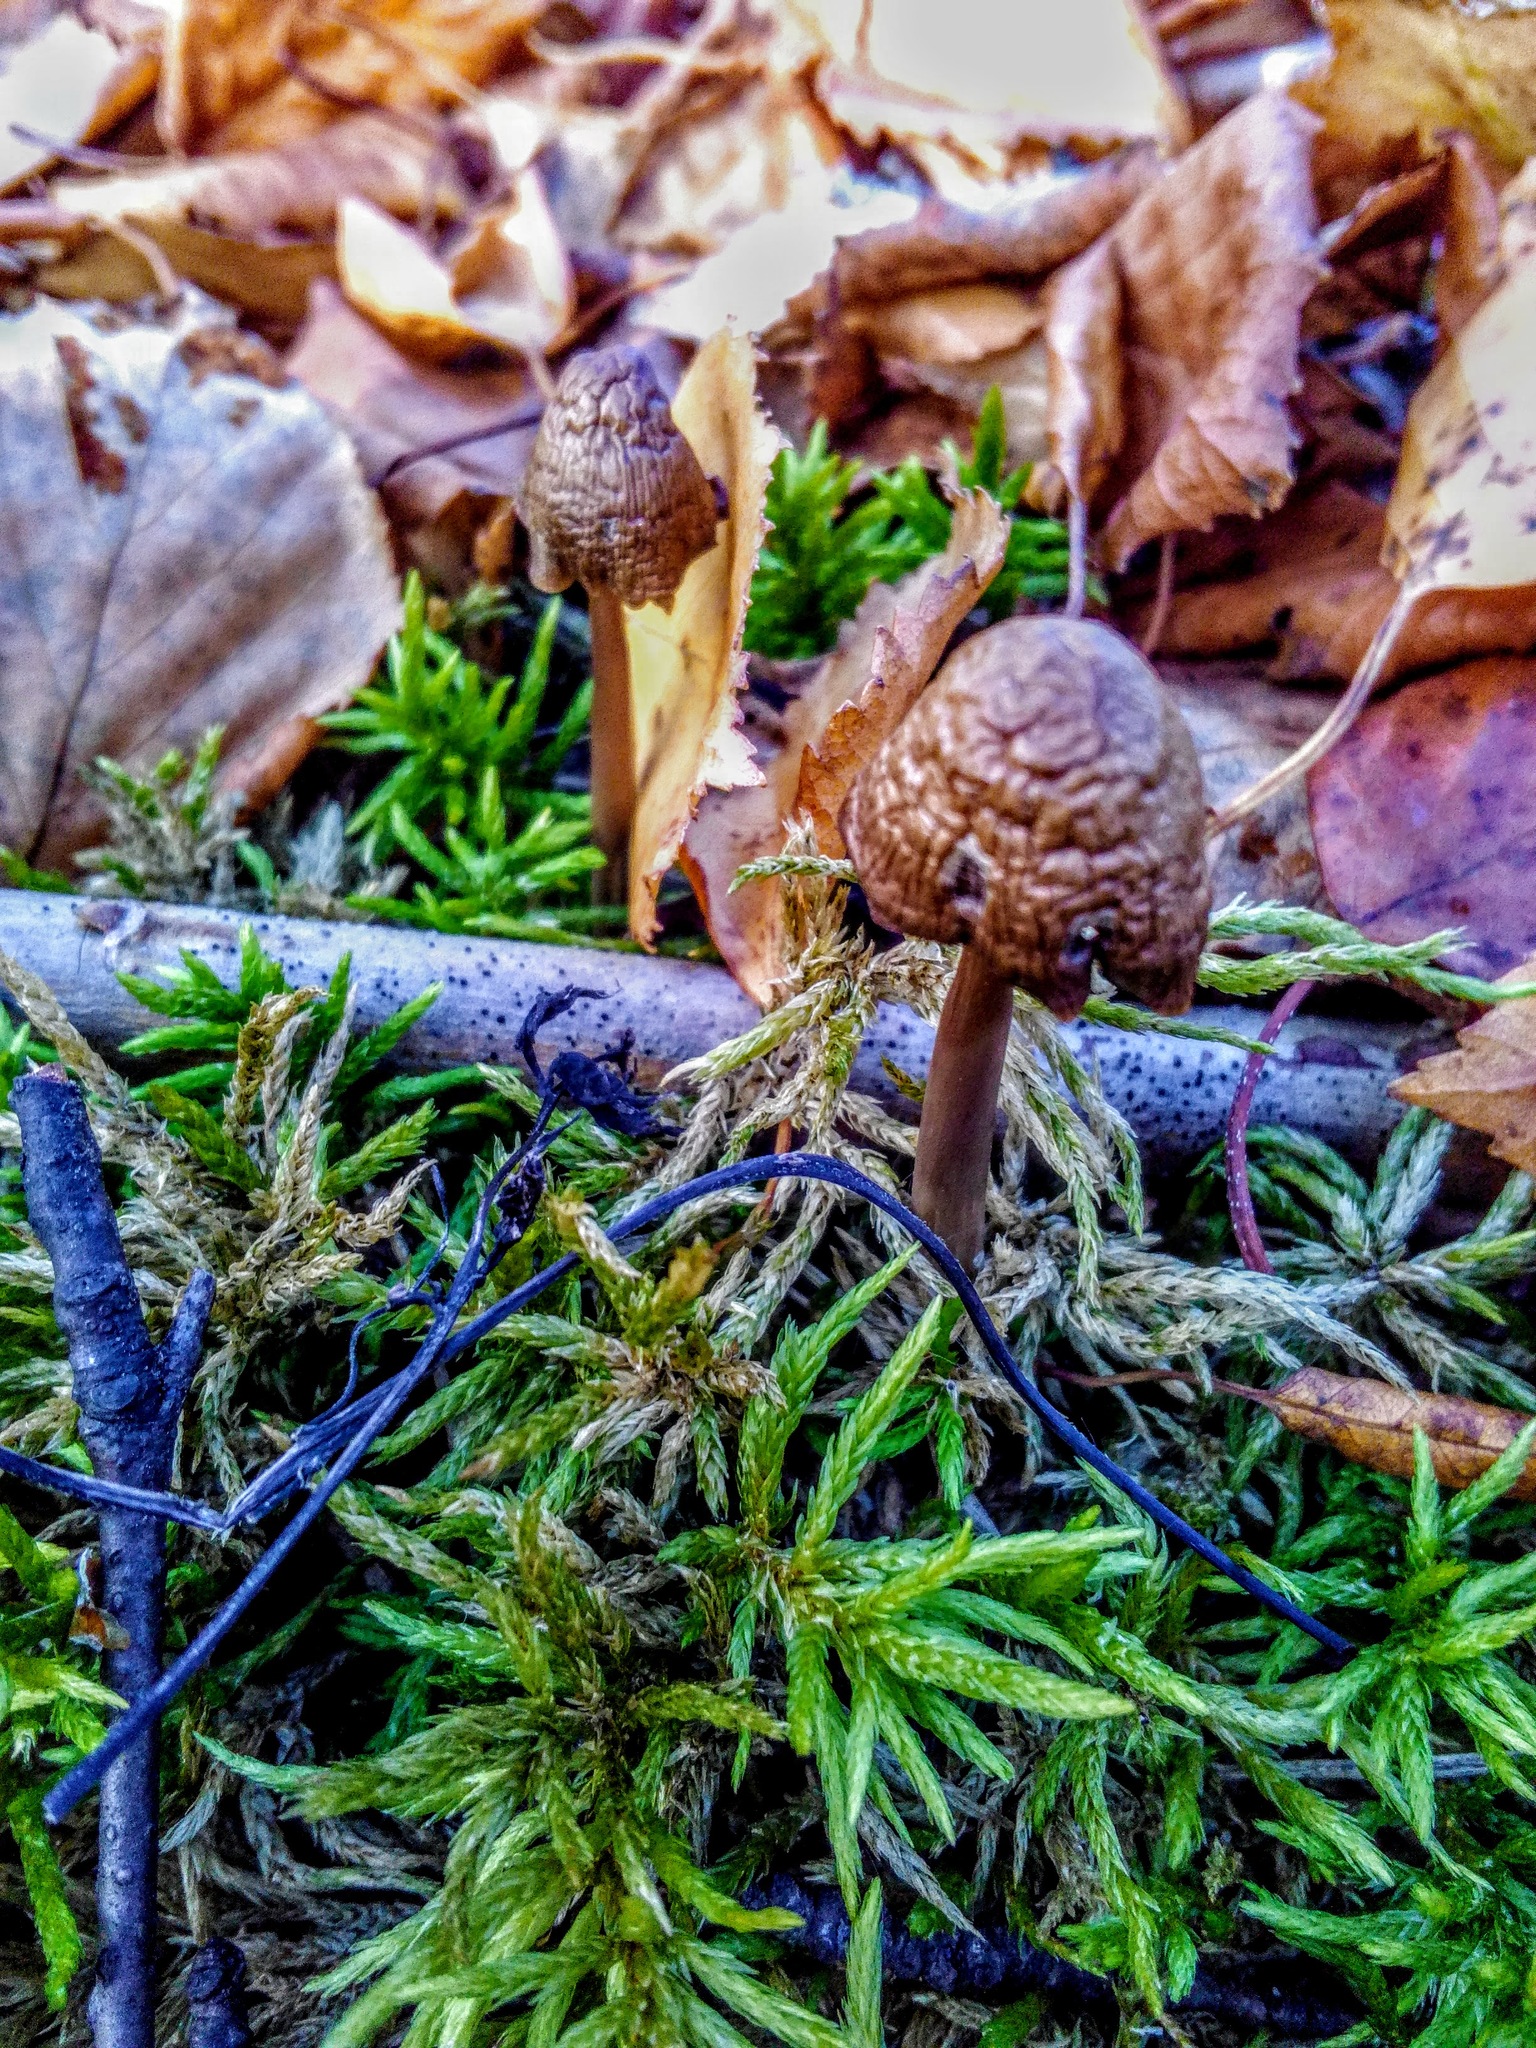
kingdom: Fungi
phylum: Basidiomycota
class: Agaricomycetes
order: Agaricales
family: Omphalotaceae
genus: Rhodocollybia
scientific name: Rhodocollybia butyracea
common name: Butter cap
